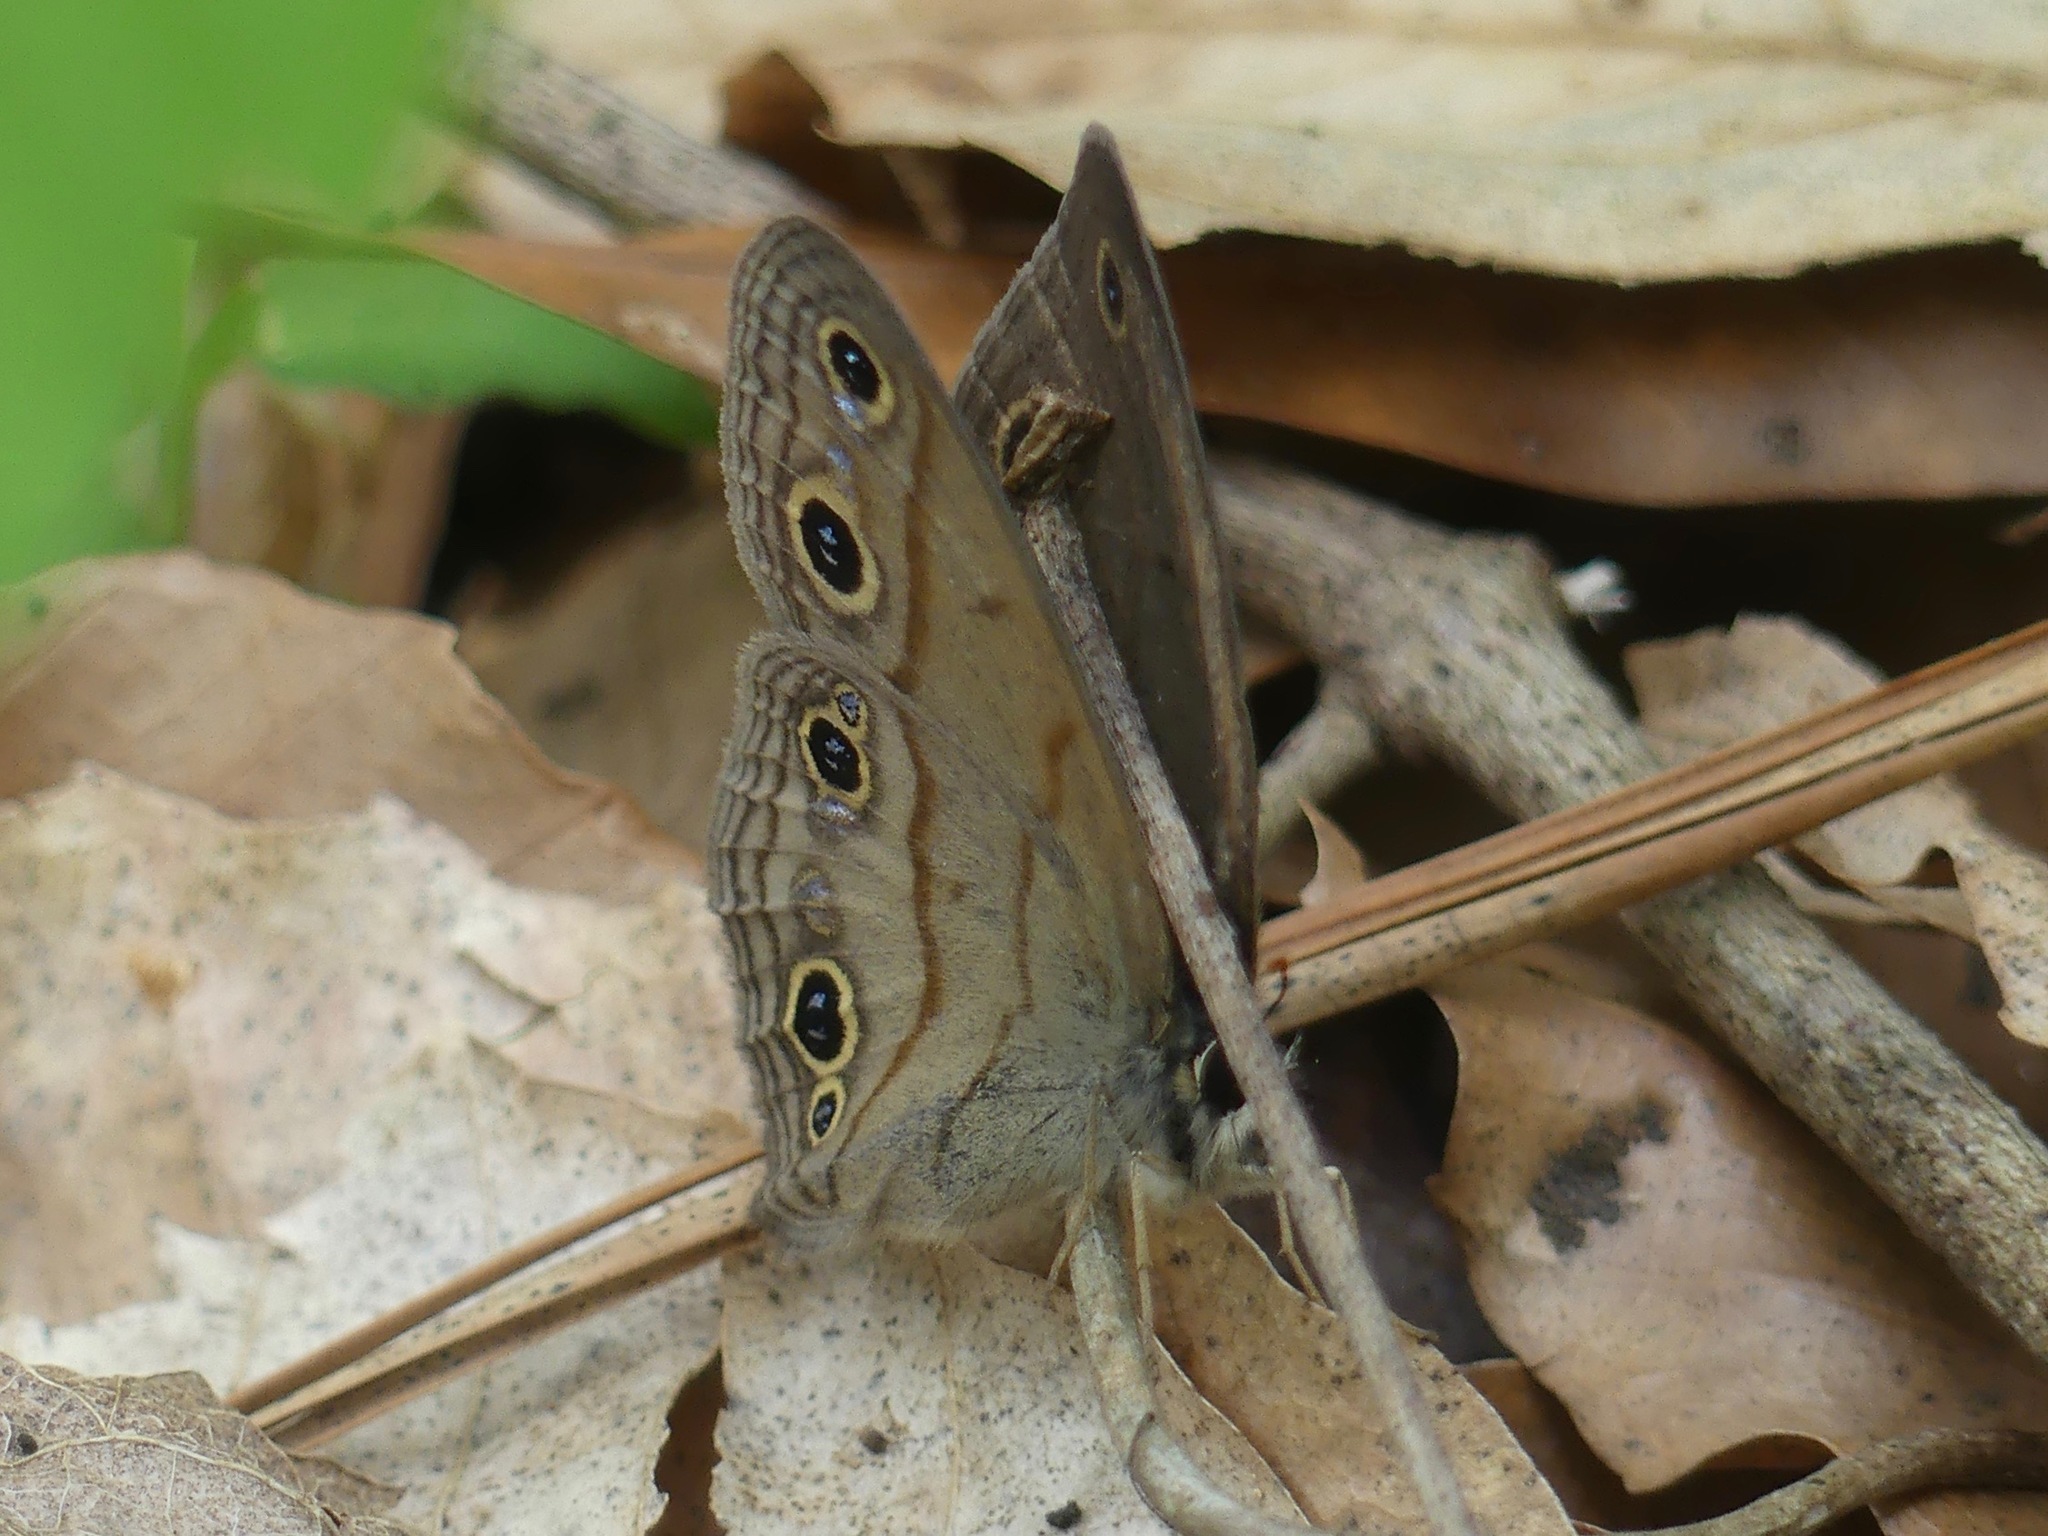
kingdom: Animalia
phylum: Arthropoda
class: Insecta
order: Lepidoptera
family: Nymphalidae
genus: Euptychia
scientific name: Euptychia cymela
